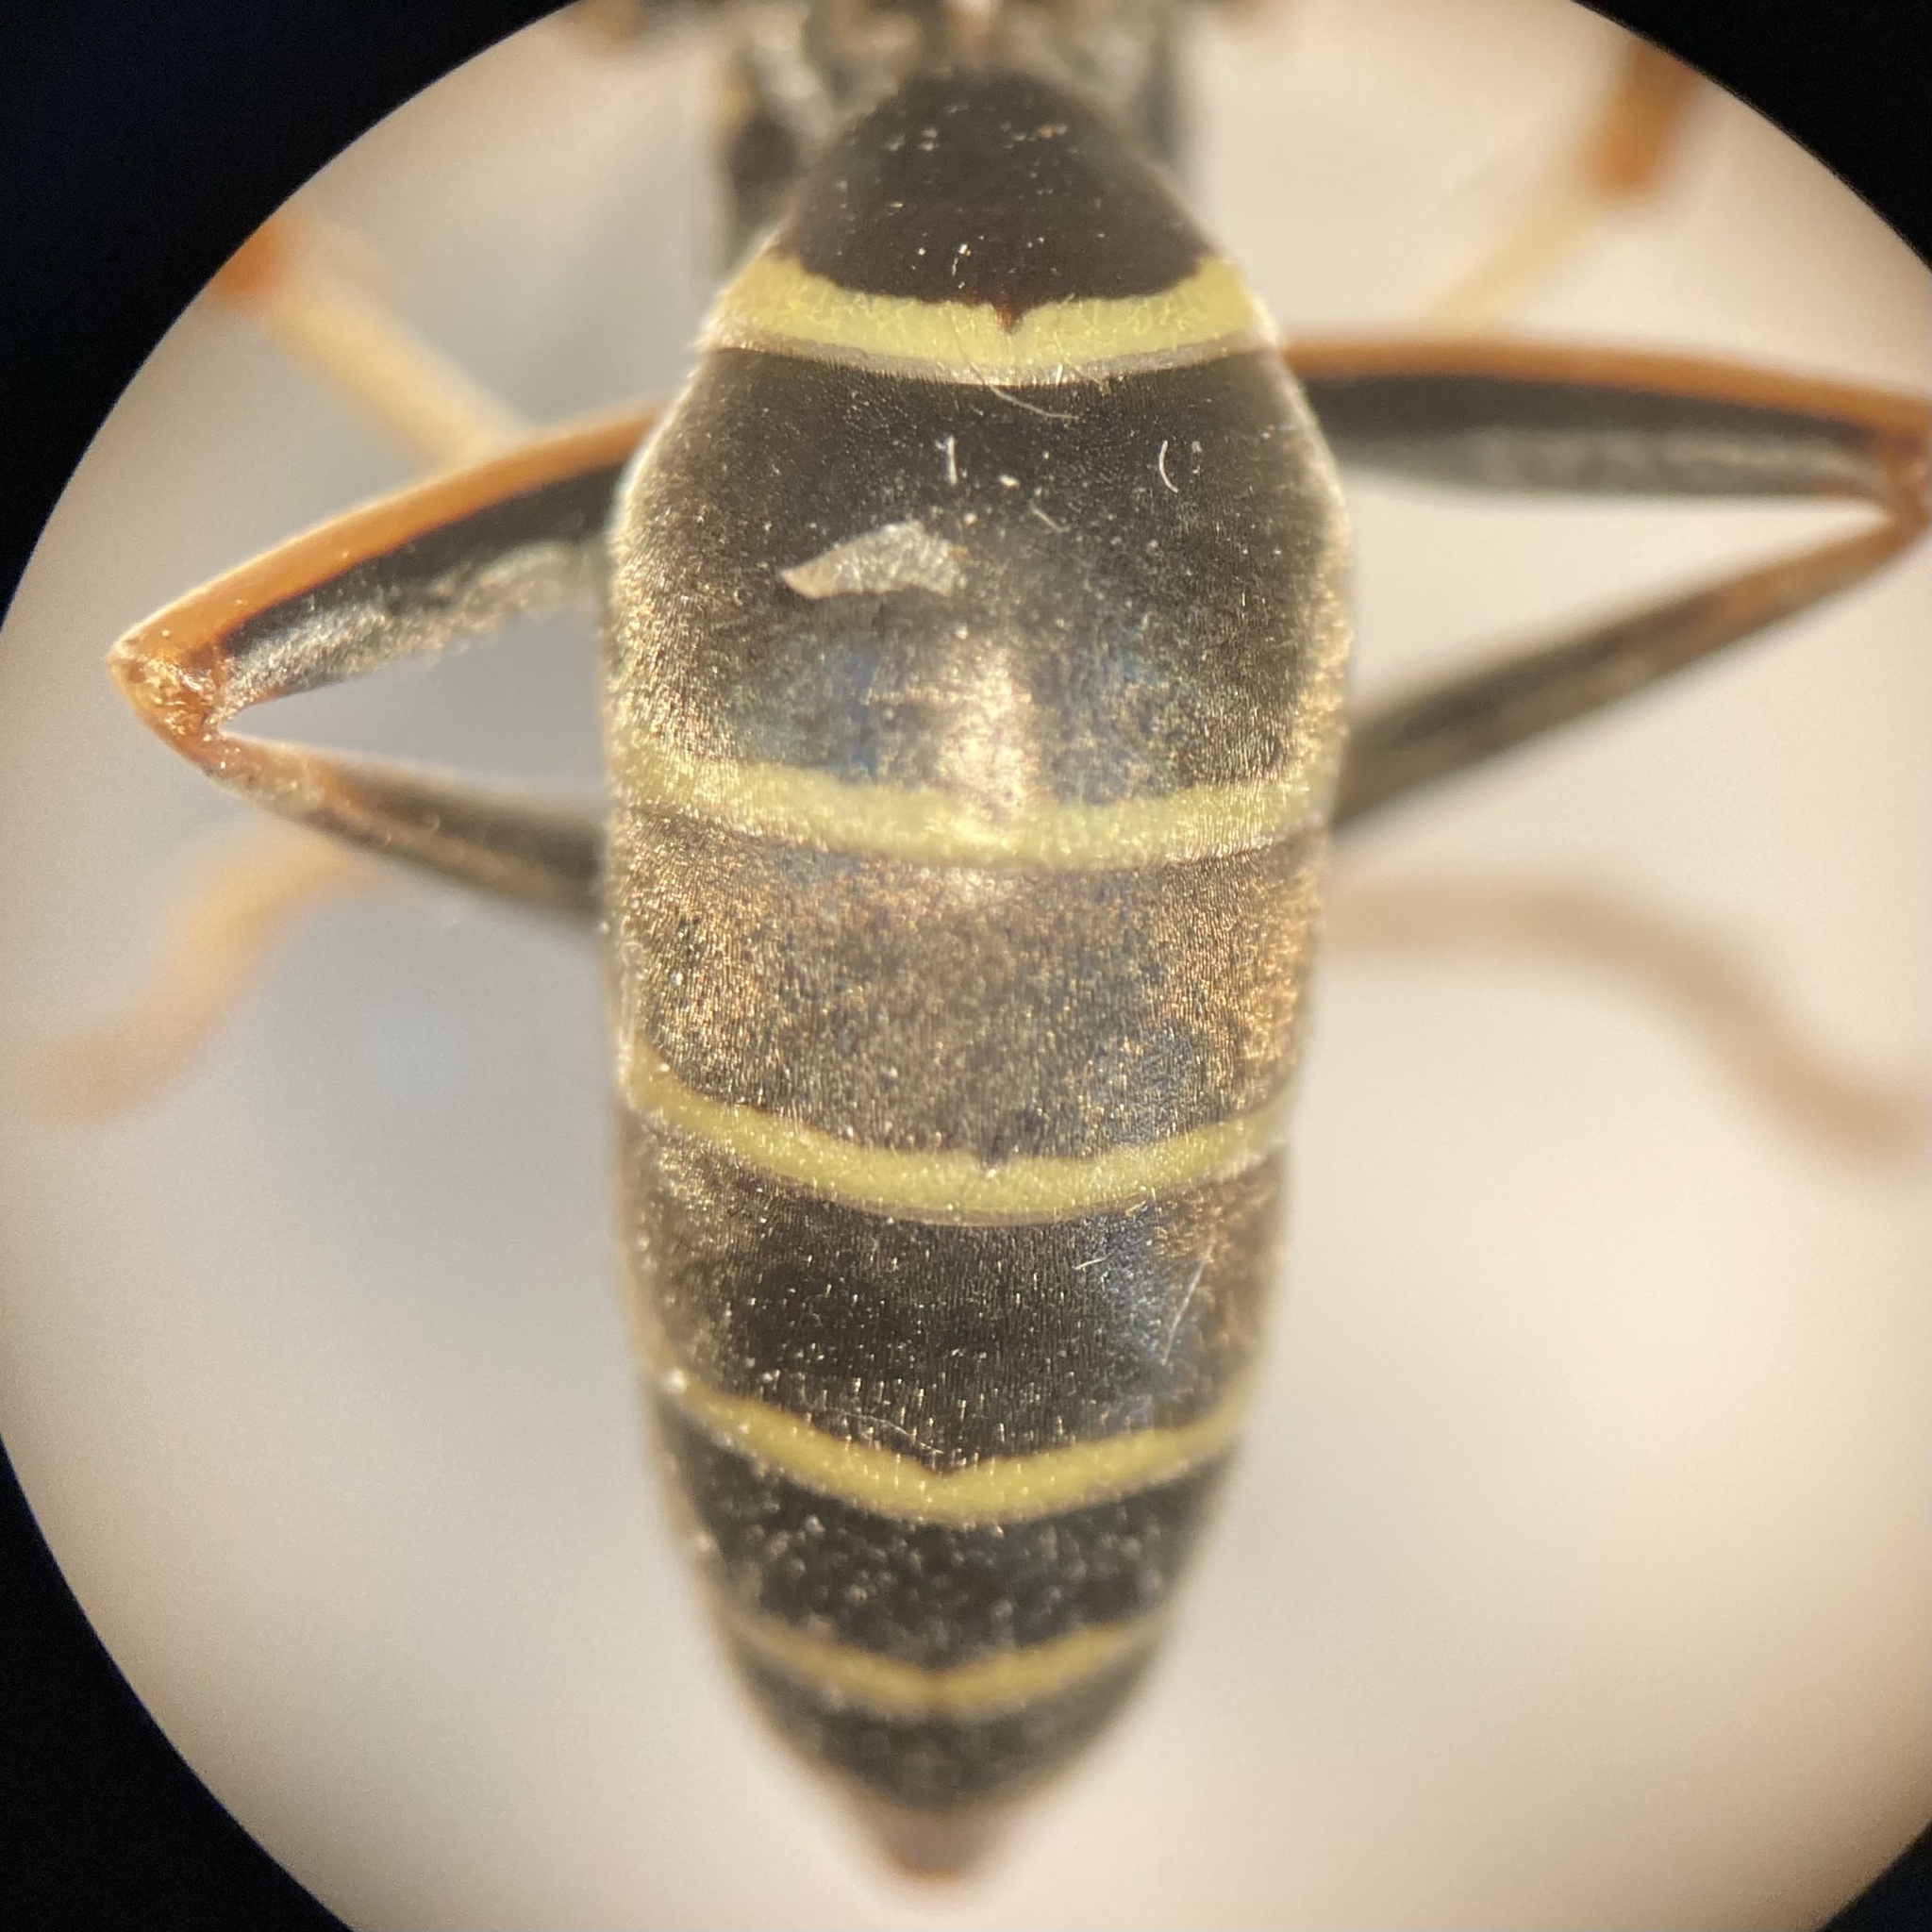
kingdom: Animalia
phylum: Arthropoda
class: Insecta
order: Hymenoptera
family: Eumenidae
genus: Polistes
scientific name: Polistes fuscatus
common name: Dark paper wasp
